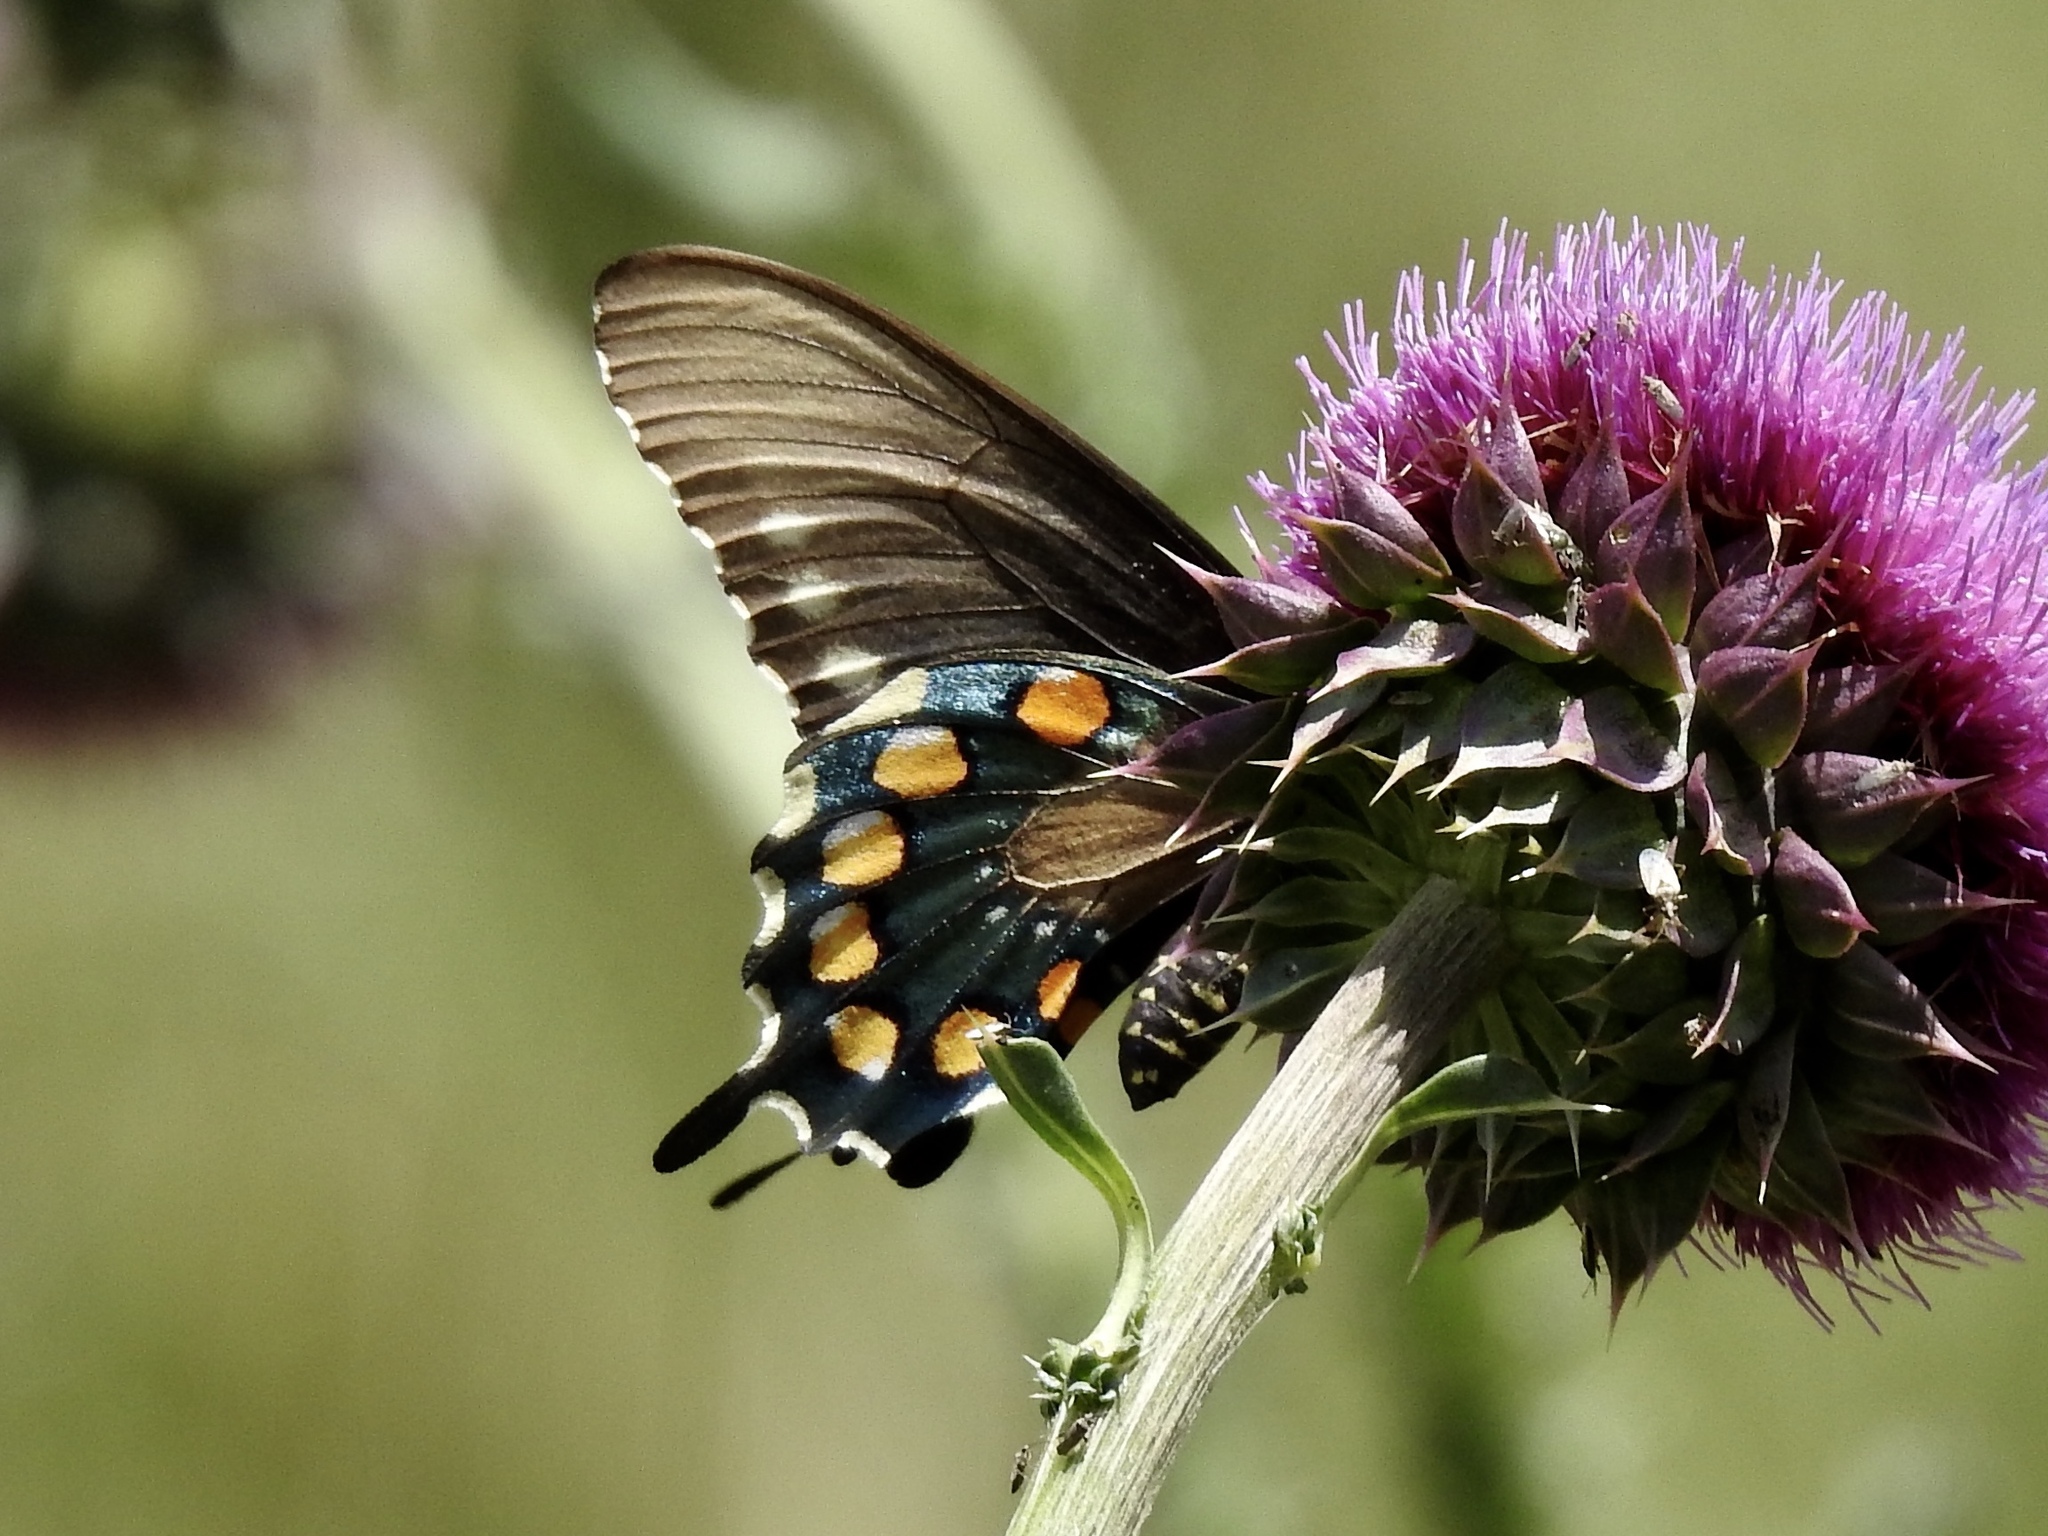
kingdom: Animalia
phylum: Arthropoda
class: Insecta
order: Lepidoptera
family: Papilionidae
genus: Battus
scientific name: Battus philenor
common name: Pipevine swallowtail
